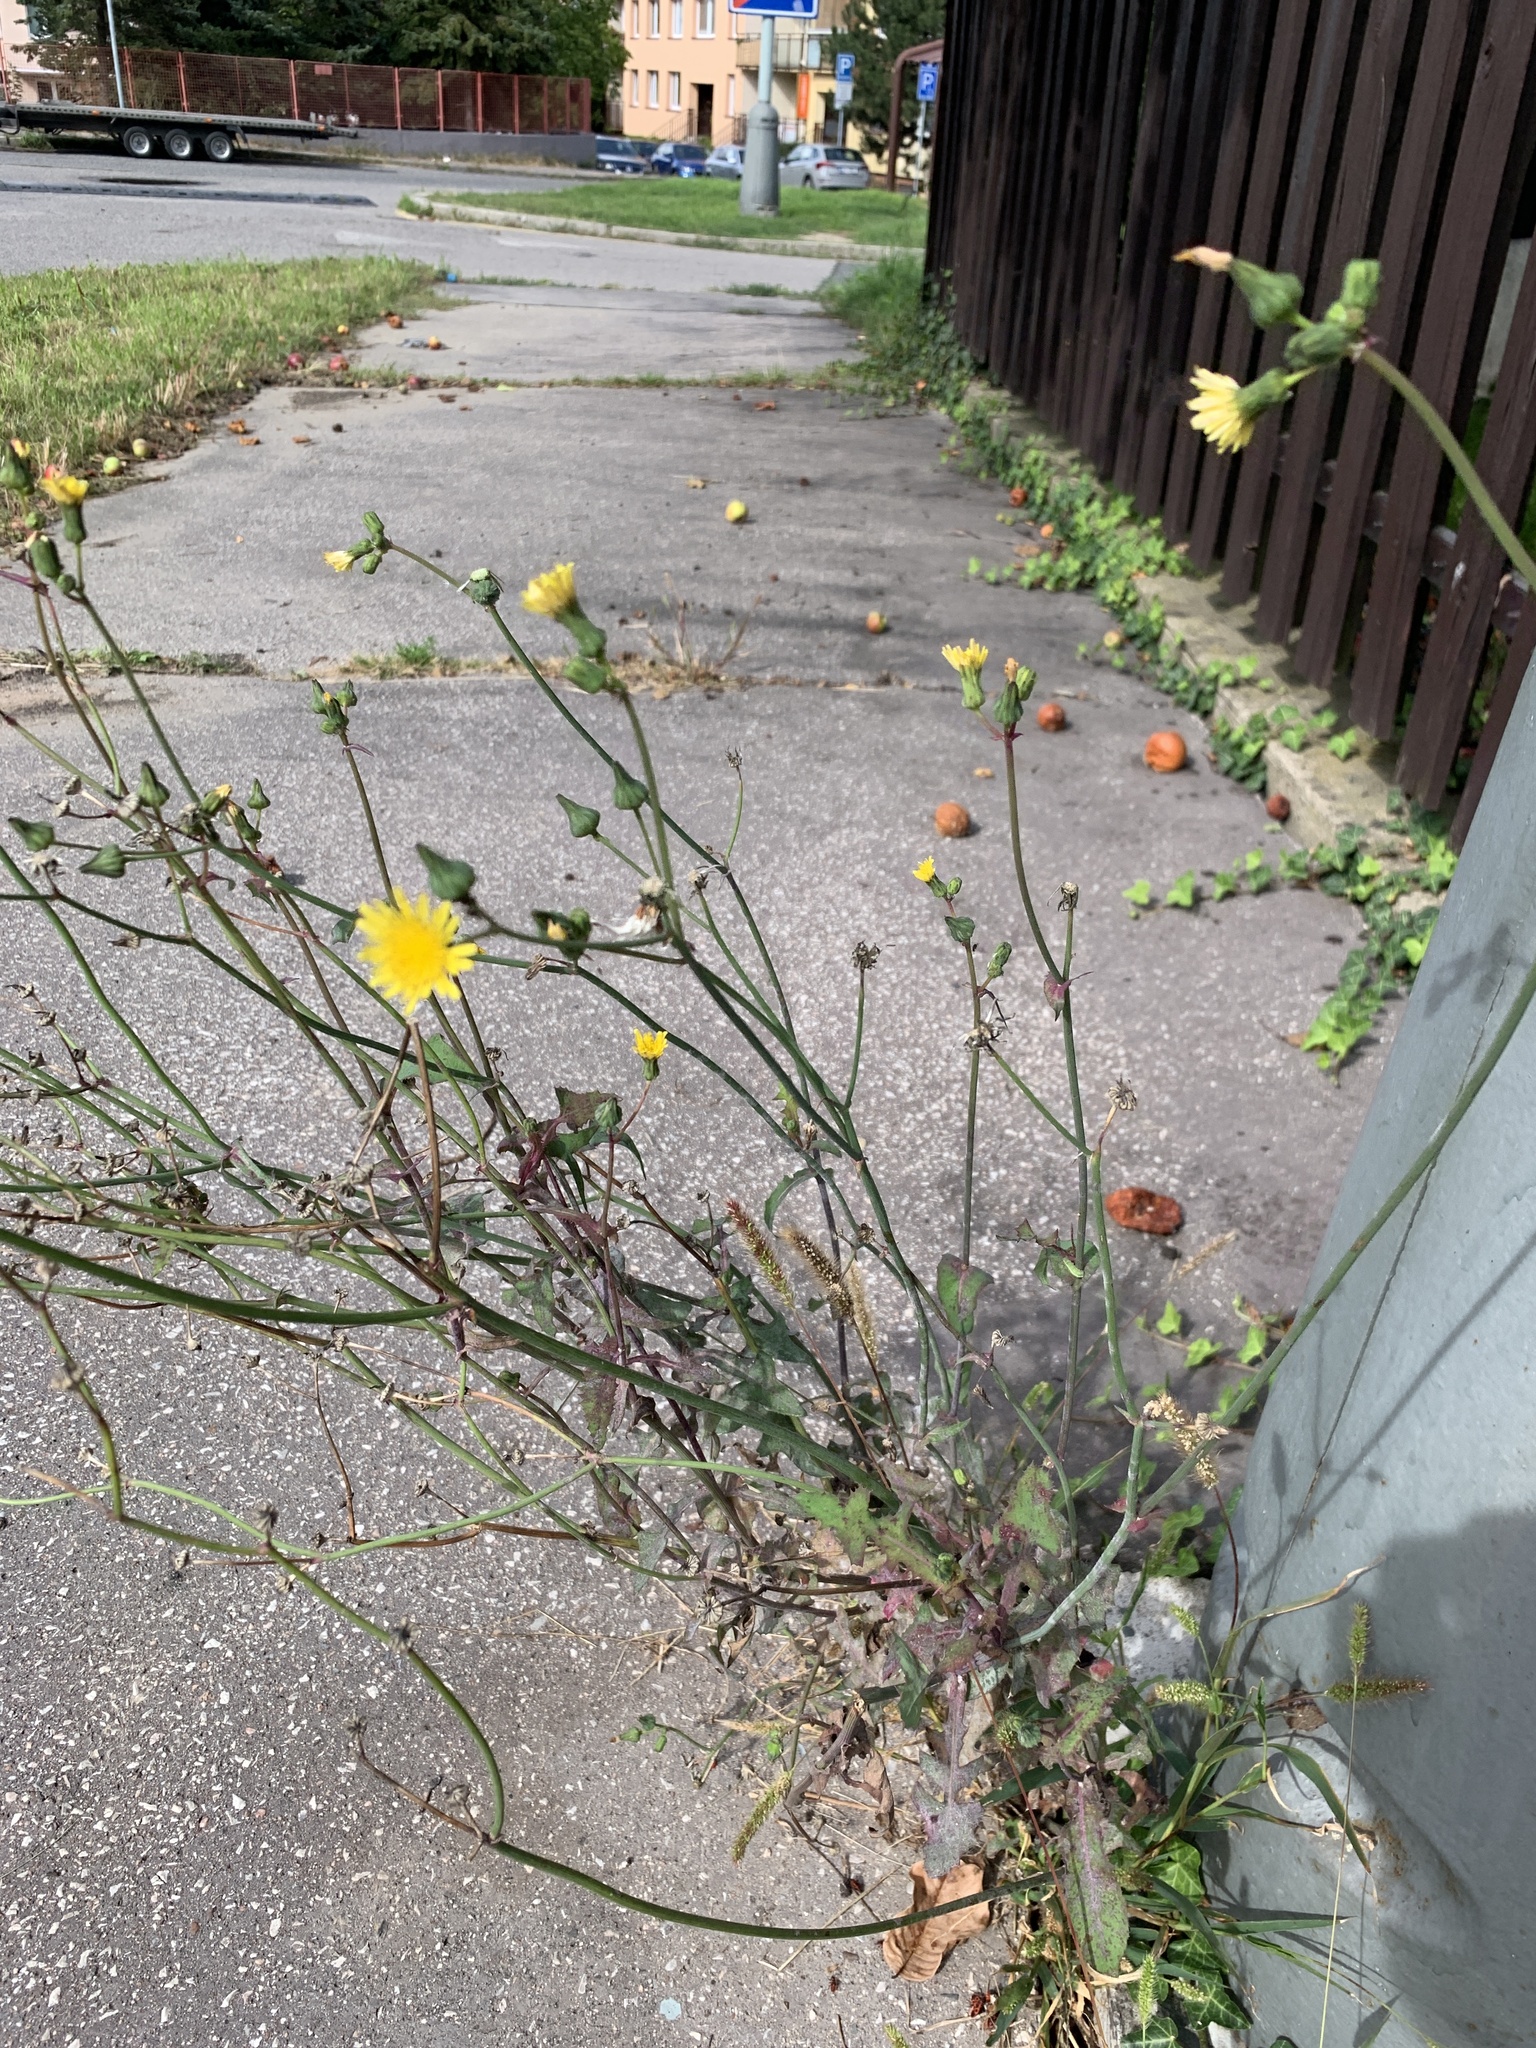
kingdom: Plantae
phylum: Tracheophyta
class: Magnoliopsida
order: Asterales
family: Asteraceae
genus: Sonchus
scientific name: Sonchus oleraceus
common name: Common sowthistle
